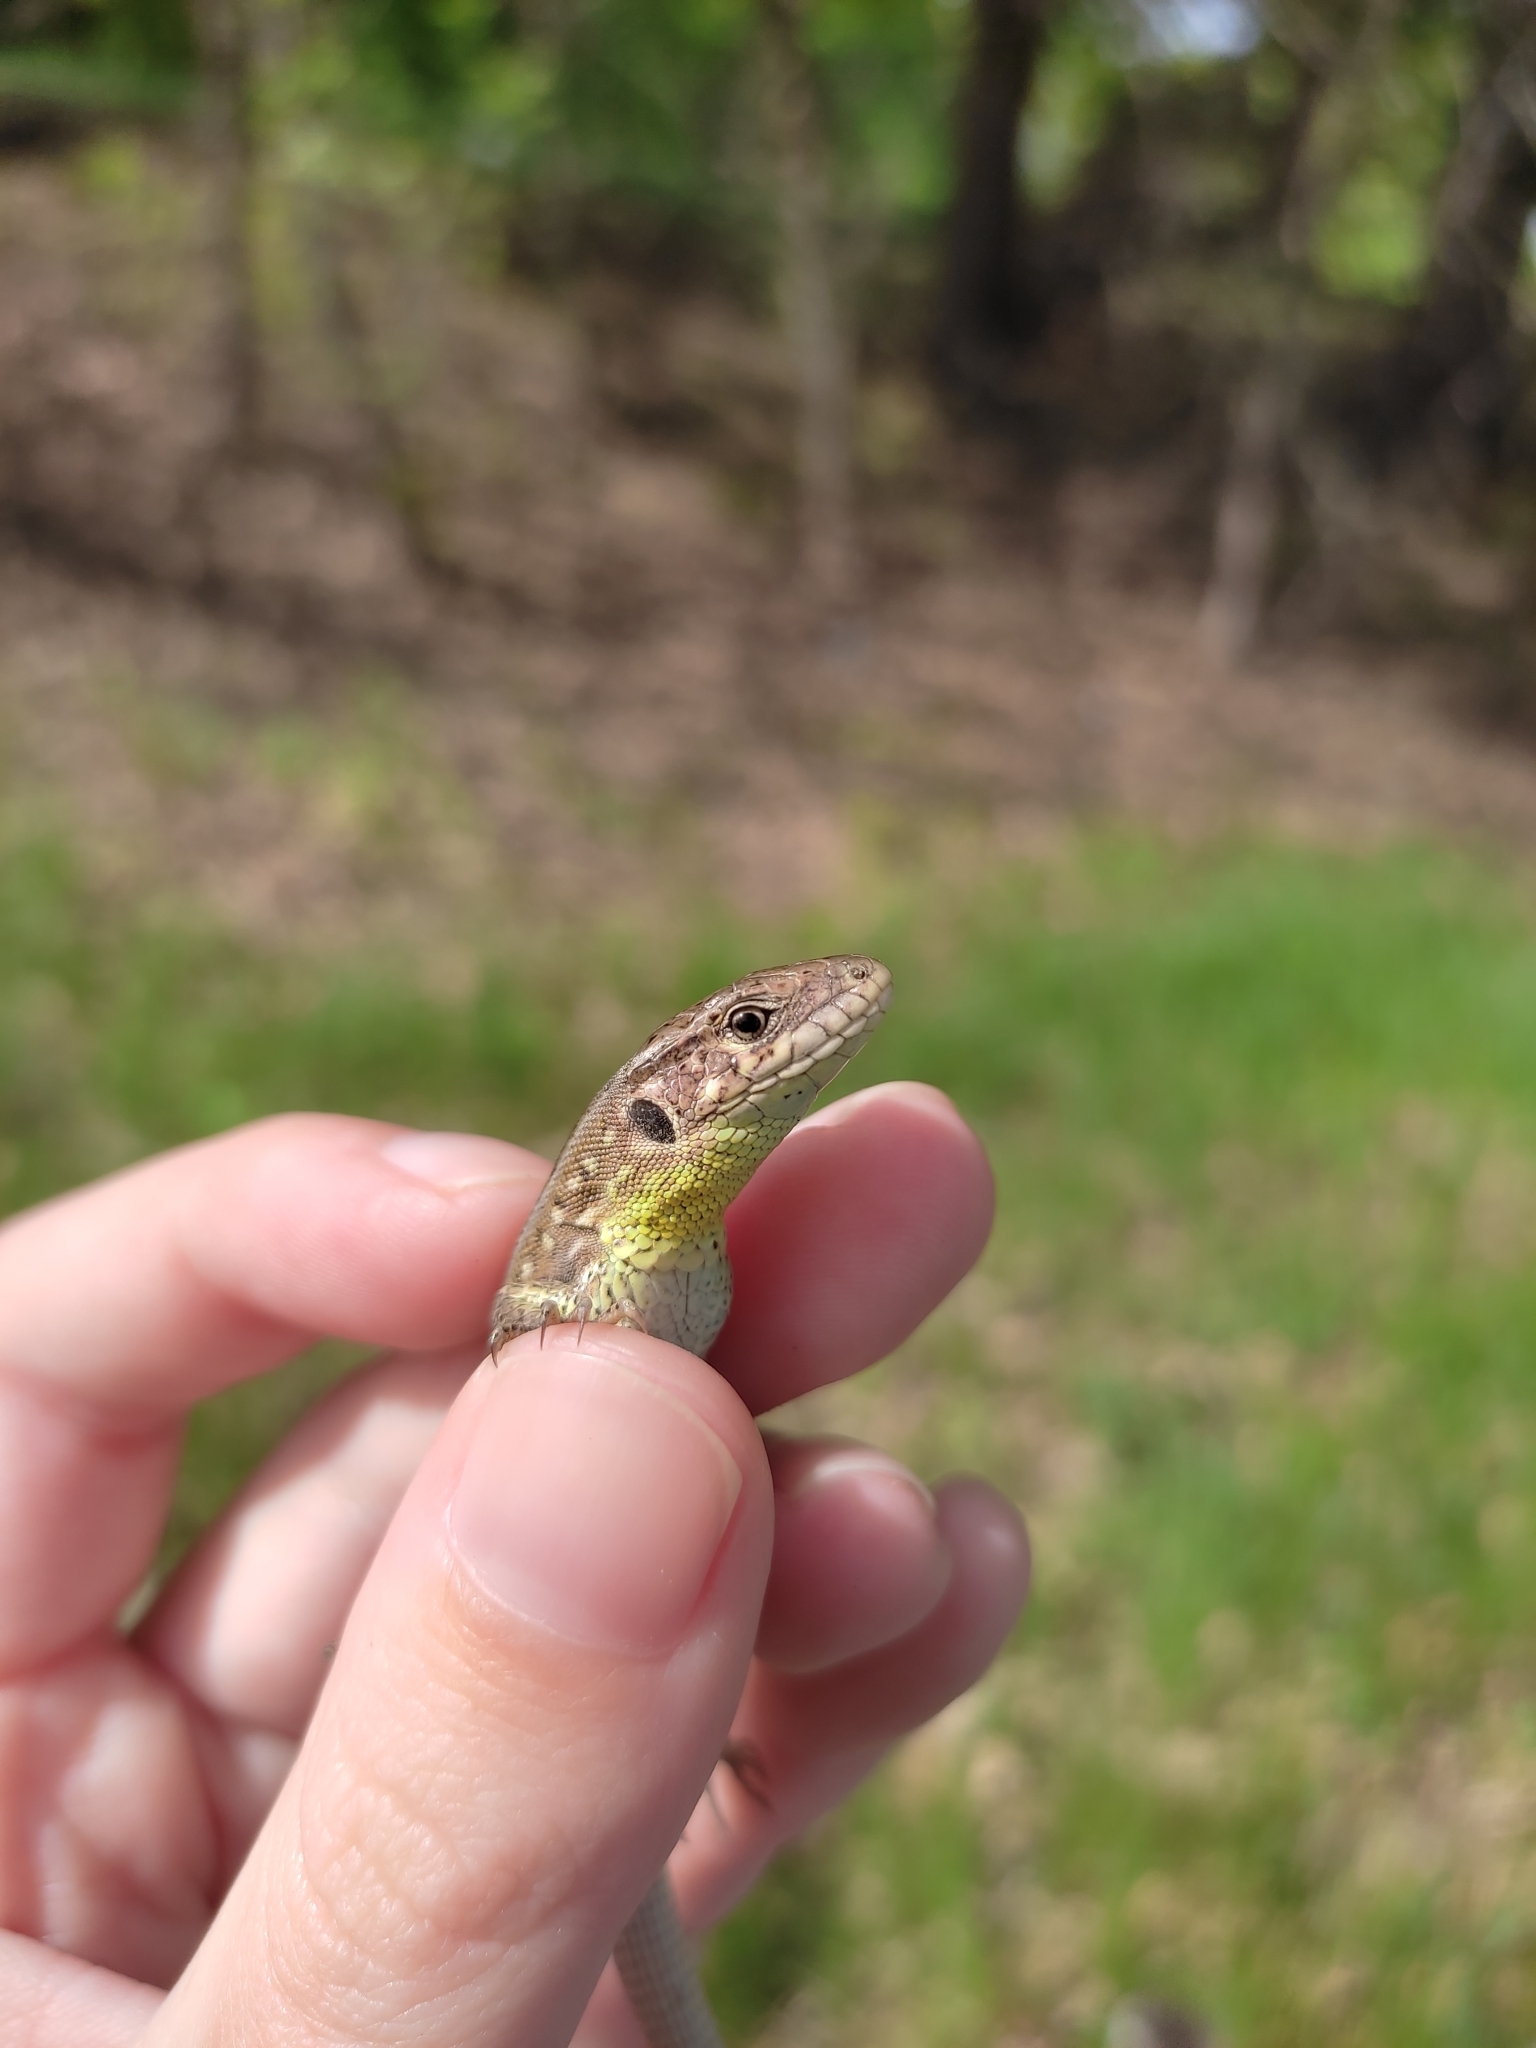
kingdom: Animalia
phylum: Chordata
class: Squamata
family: Lacertidae
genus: Lacerta
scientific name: Lacerta agilis
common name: Sand lizard
